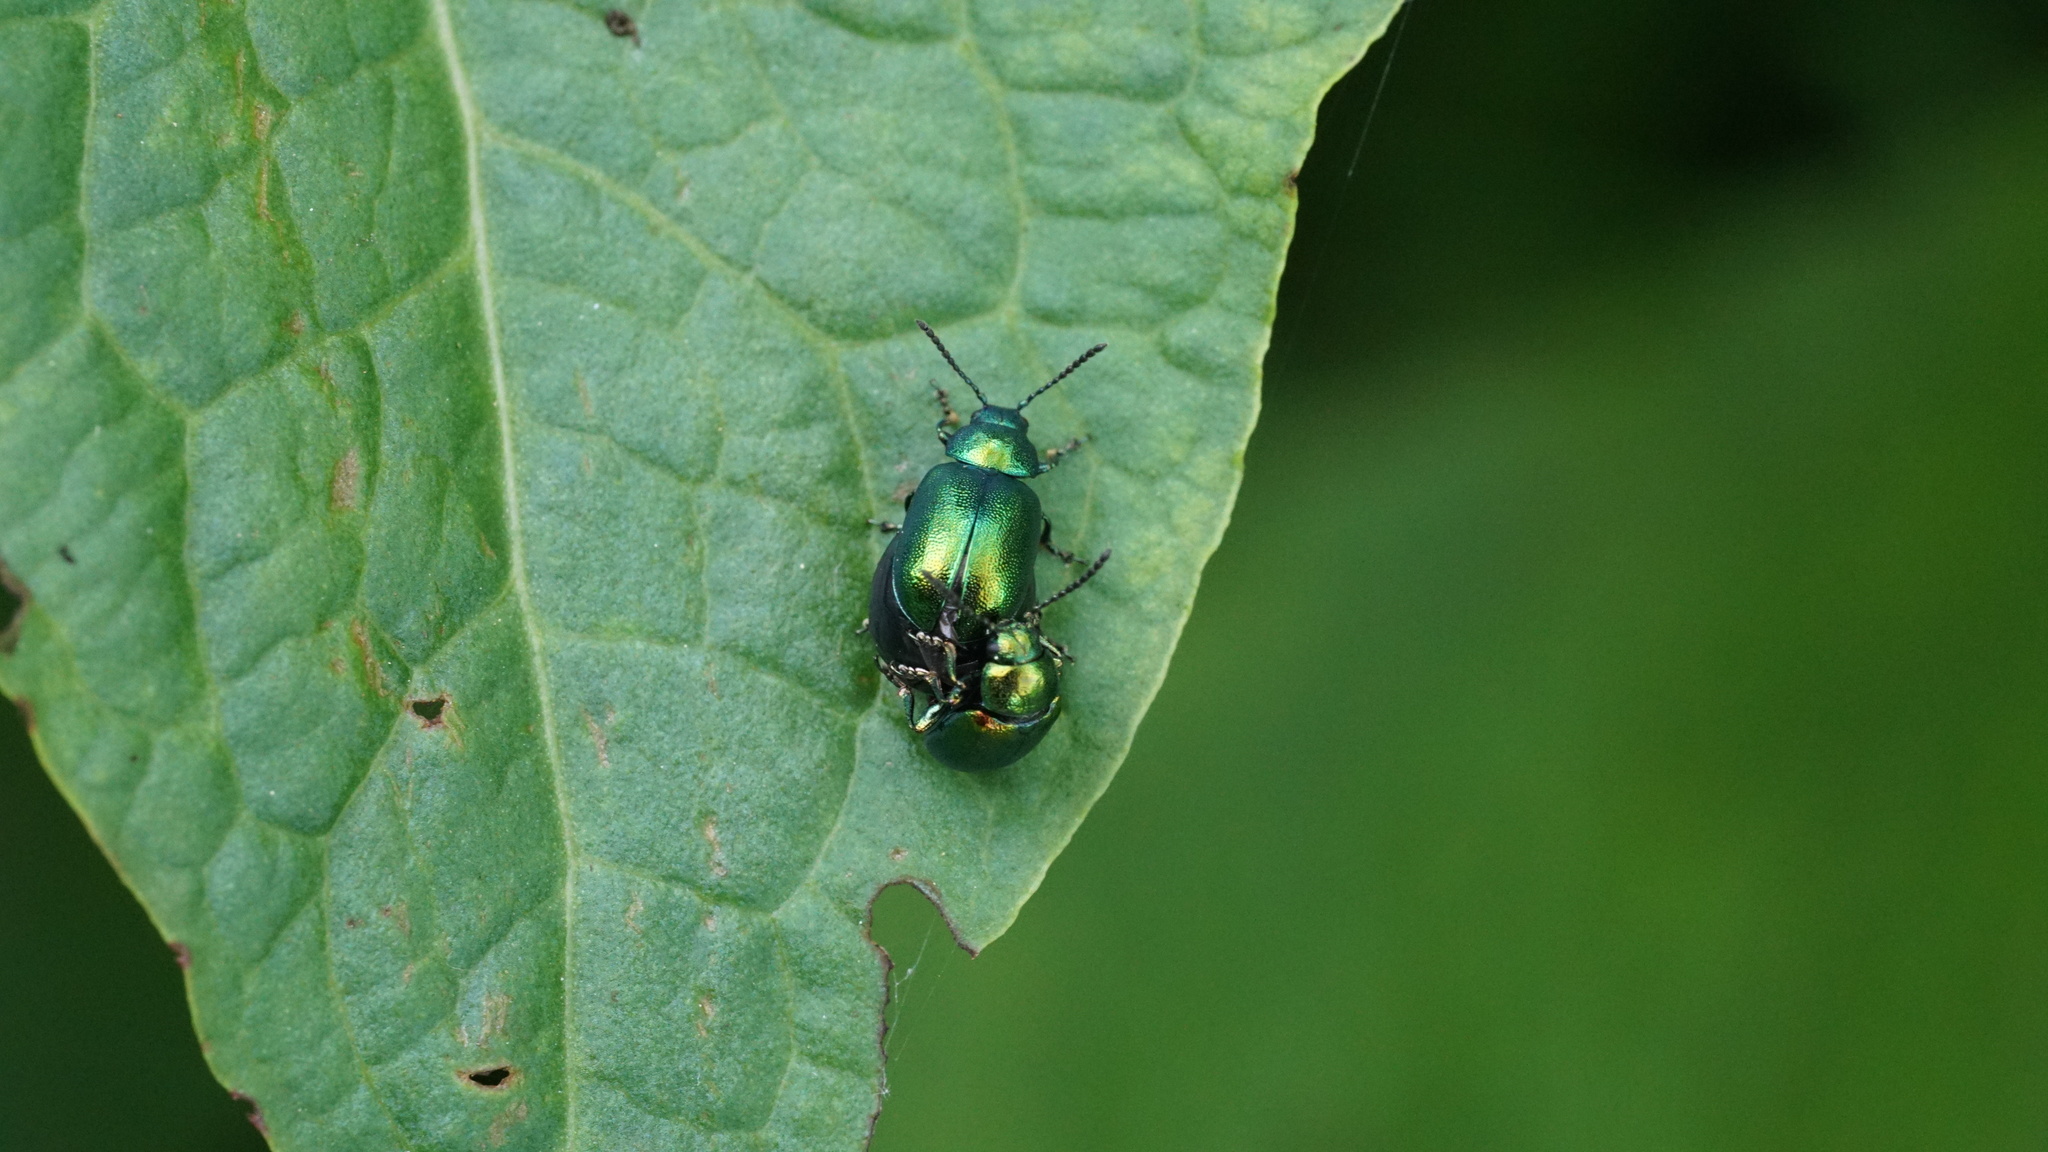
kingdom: Animalia
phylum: Arthropoda
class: Insecta
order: Coleoptera
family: Chrysomelidae
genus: Gastrophysa
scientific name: Gastrophysa viridula
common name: Green dock beetle
